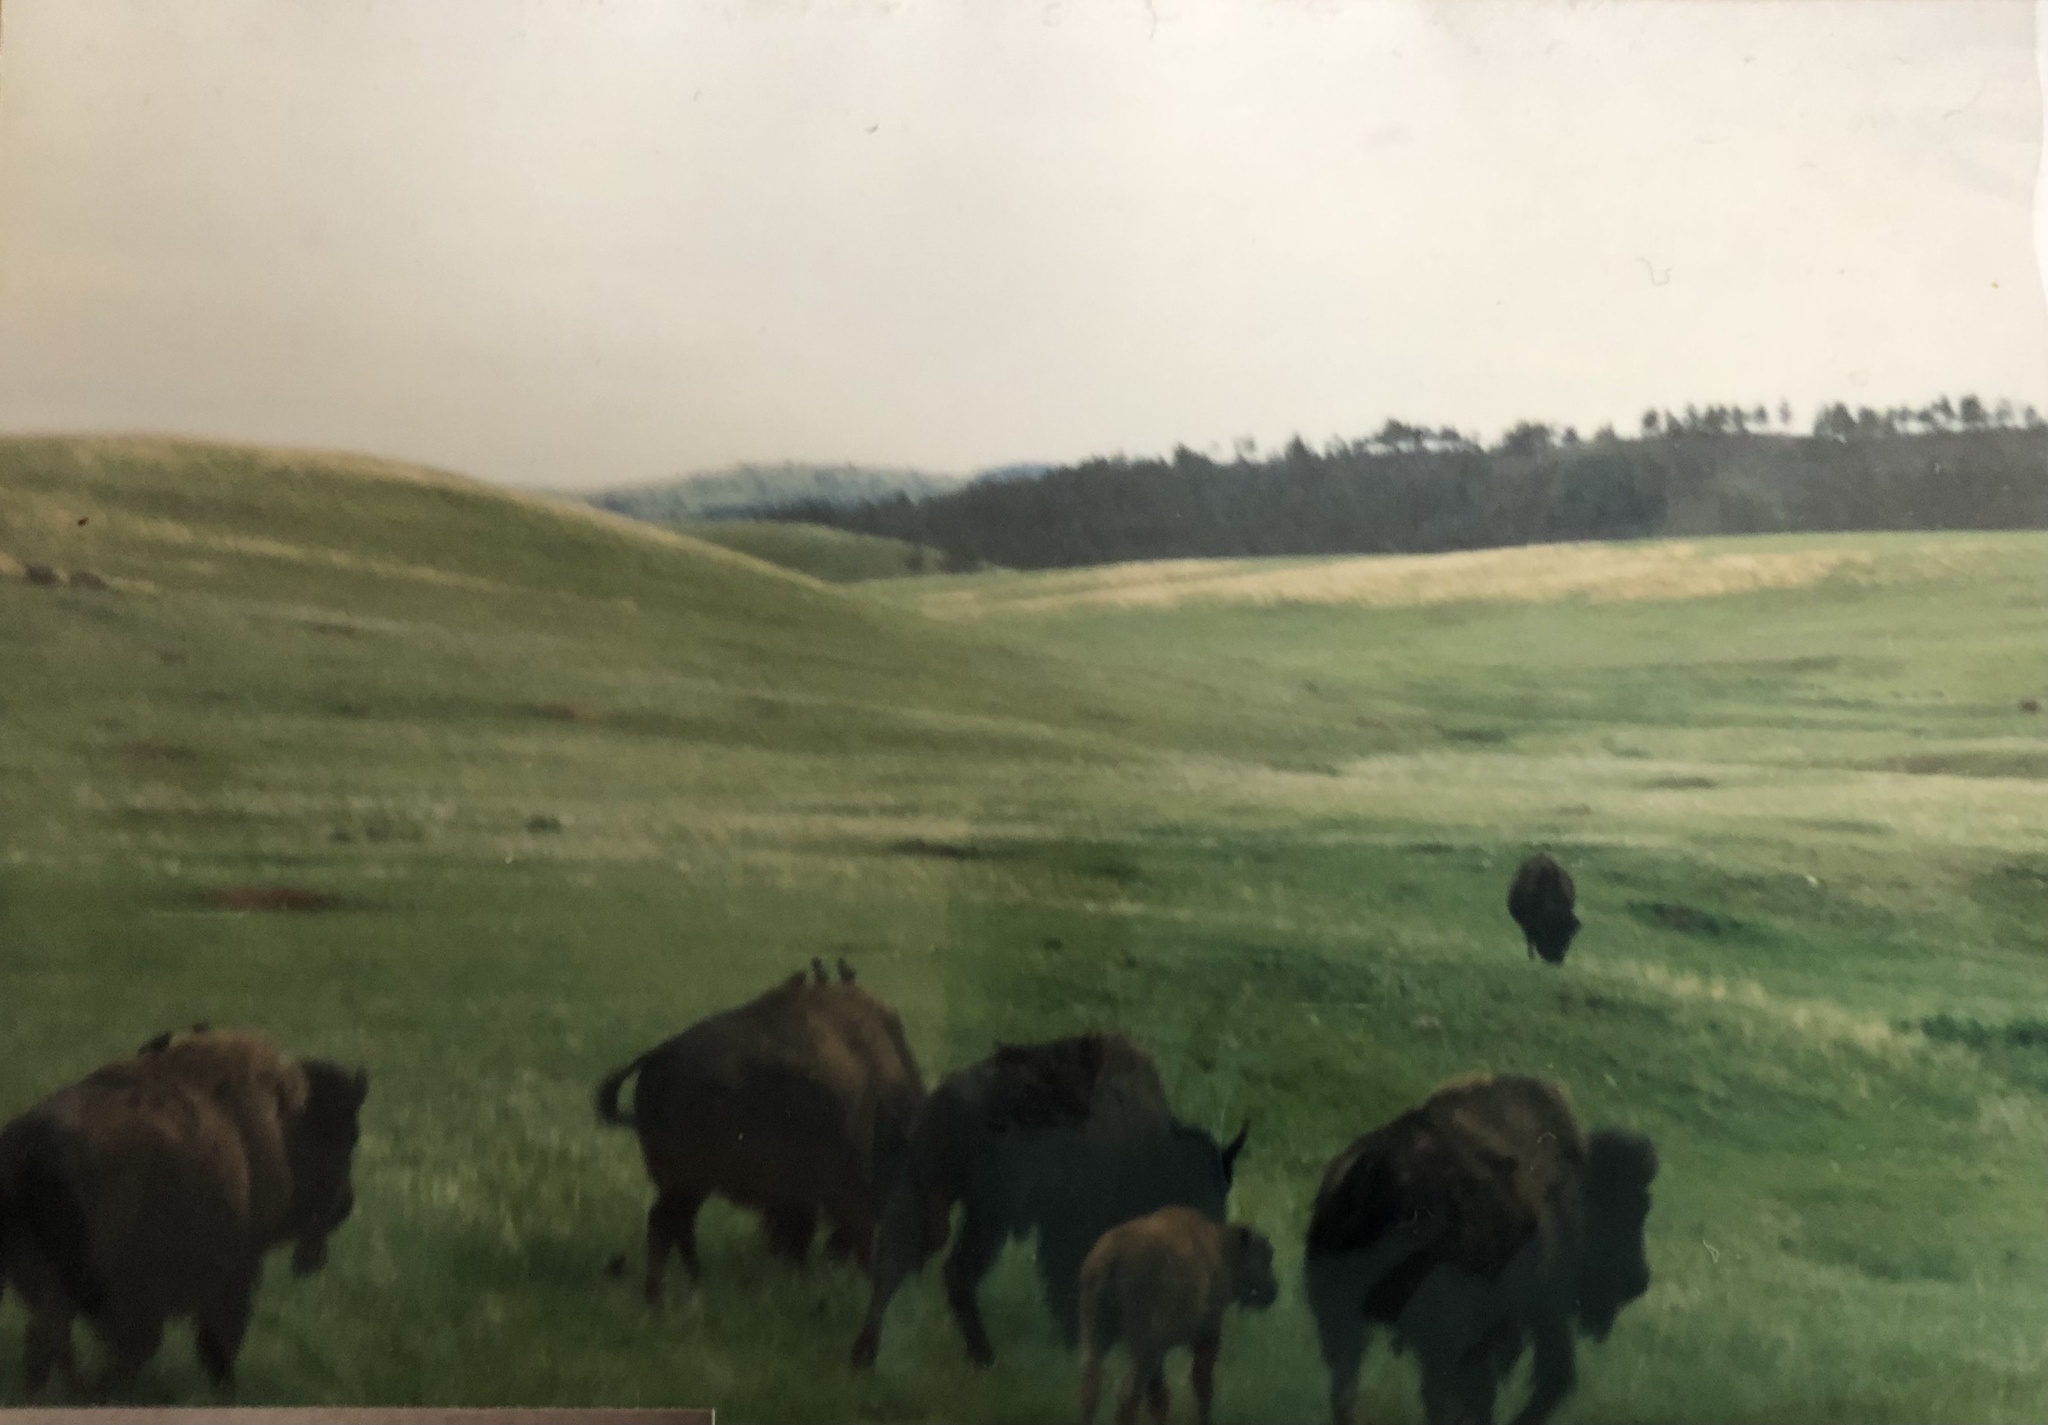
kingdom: Animalia
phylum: Chordata
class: Mammalia
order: Artiodactyla
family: Bovidae
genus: Bison
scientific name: Bison bison
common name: American bison
